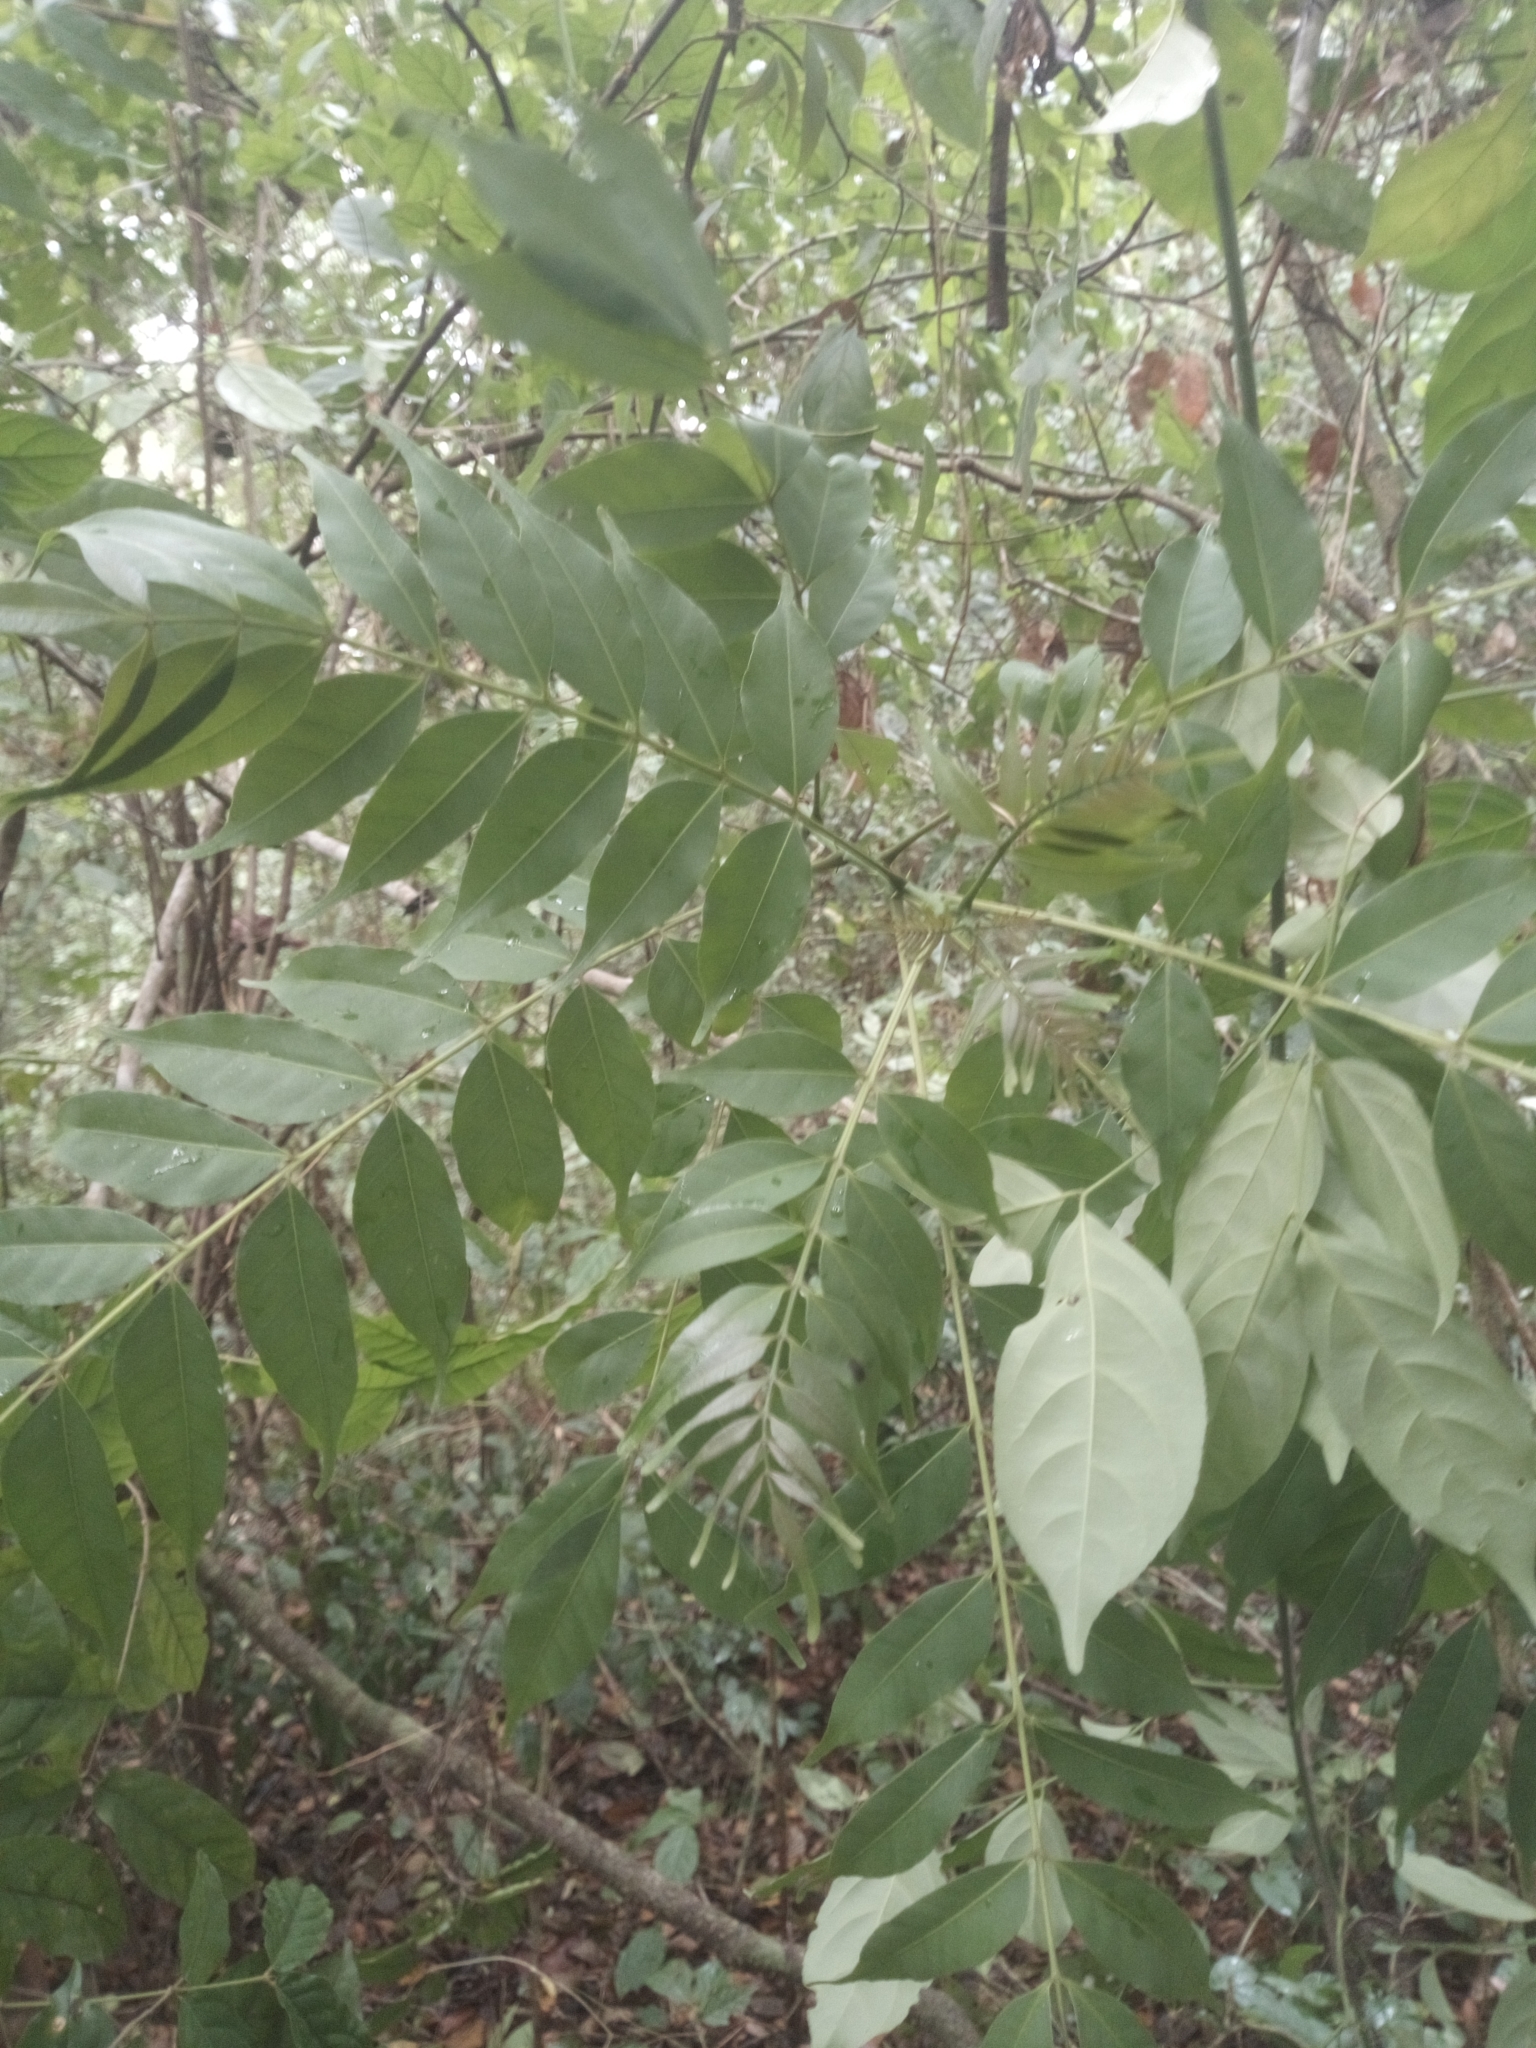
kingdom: Plantae
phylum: Tracheophyta
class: Magnoliopsida
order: Sapindales
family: Rutaceae
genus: Zanthoxylum
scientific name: Zanthoxylum leprieurii
